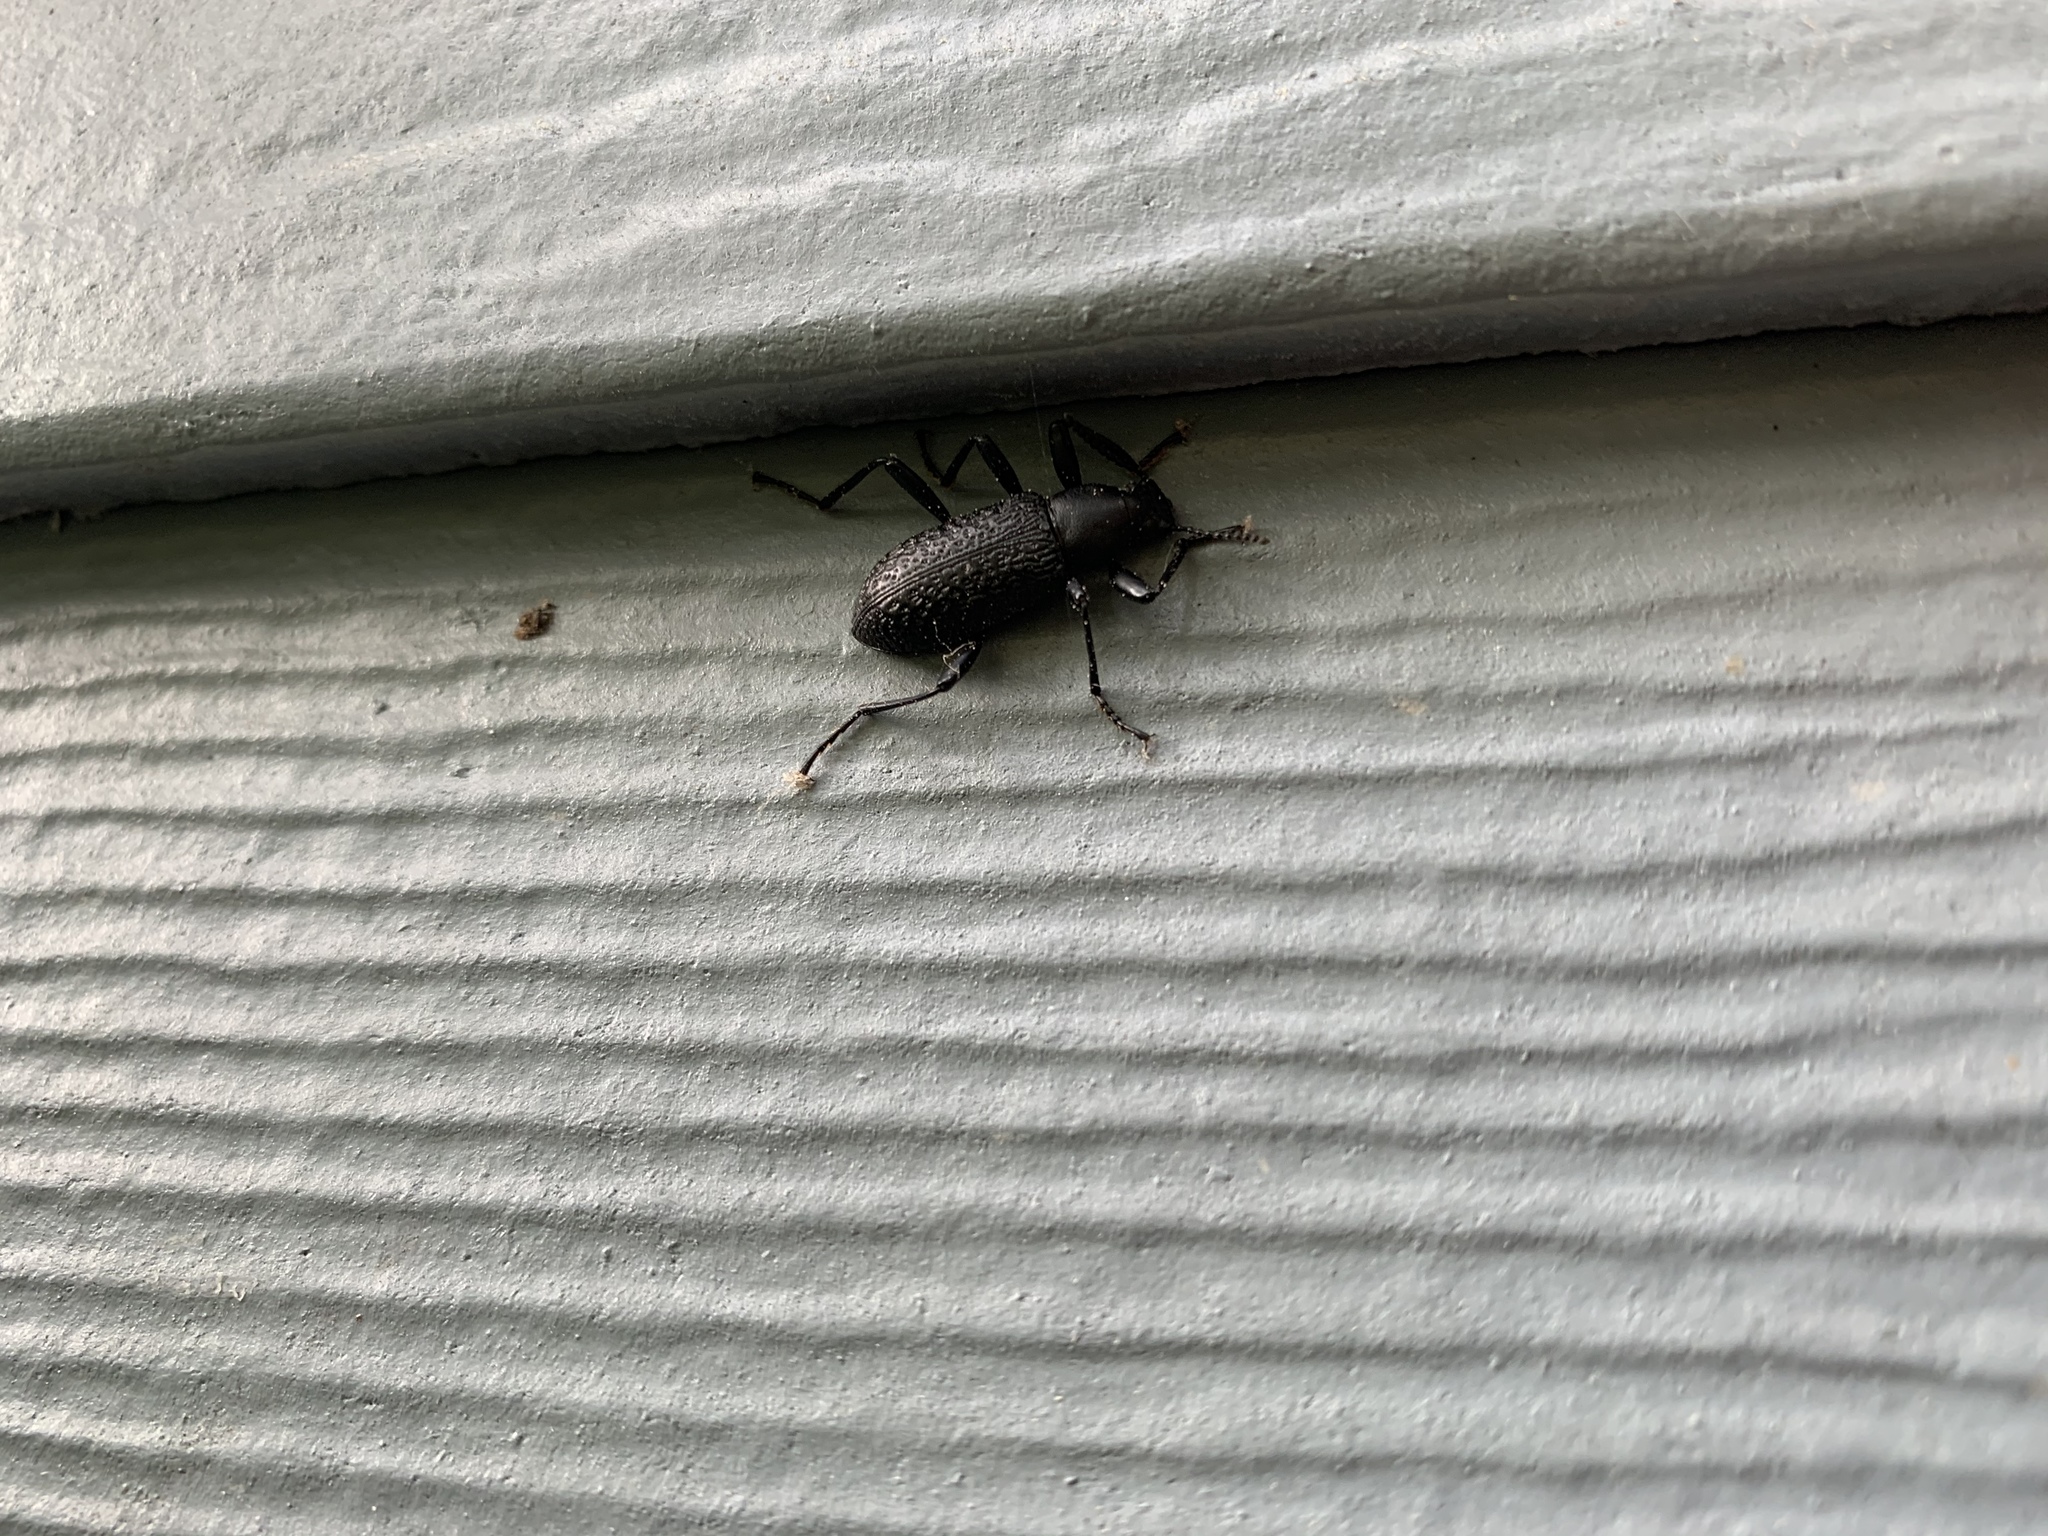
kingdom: Animalia
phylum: Arthropoda
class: Insecta
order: Coleoptera
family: Tenebrionidae
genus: Upis
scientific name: Upis ceramboides
